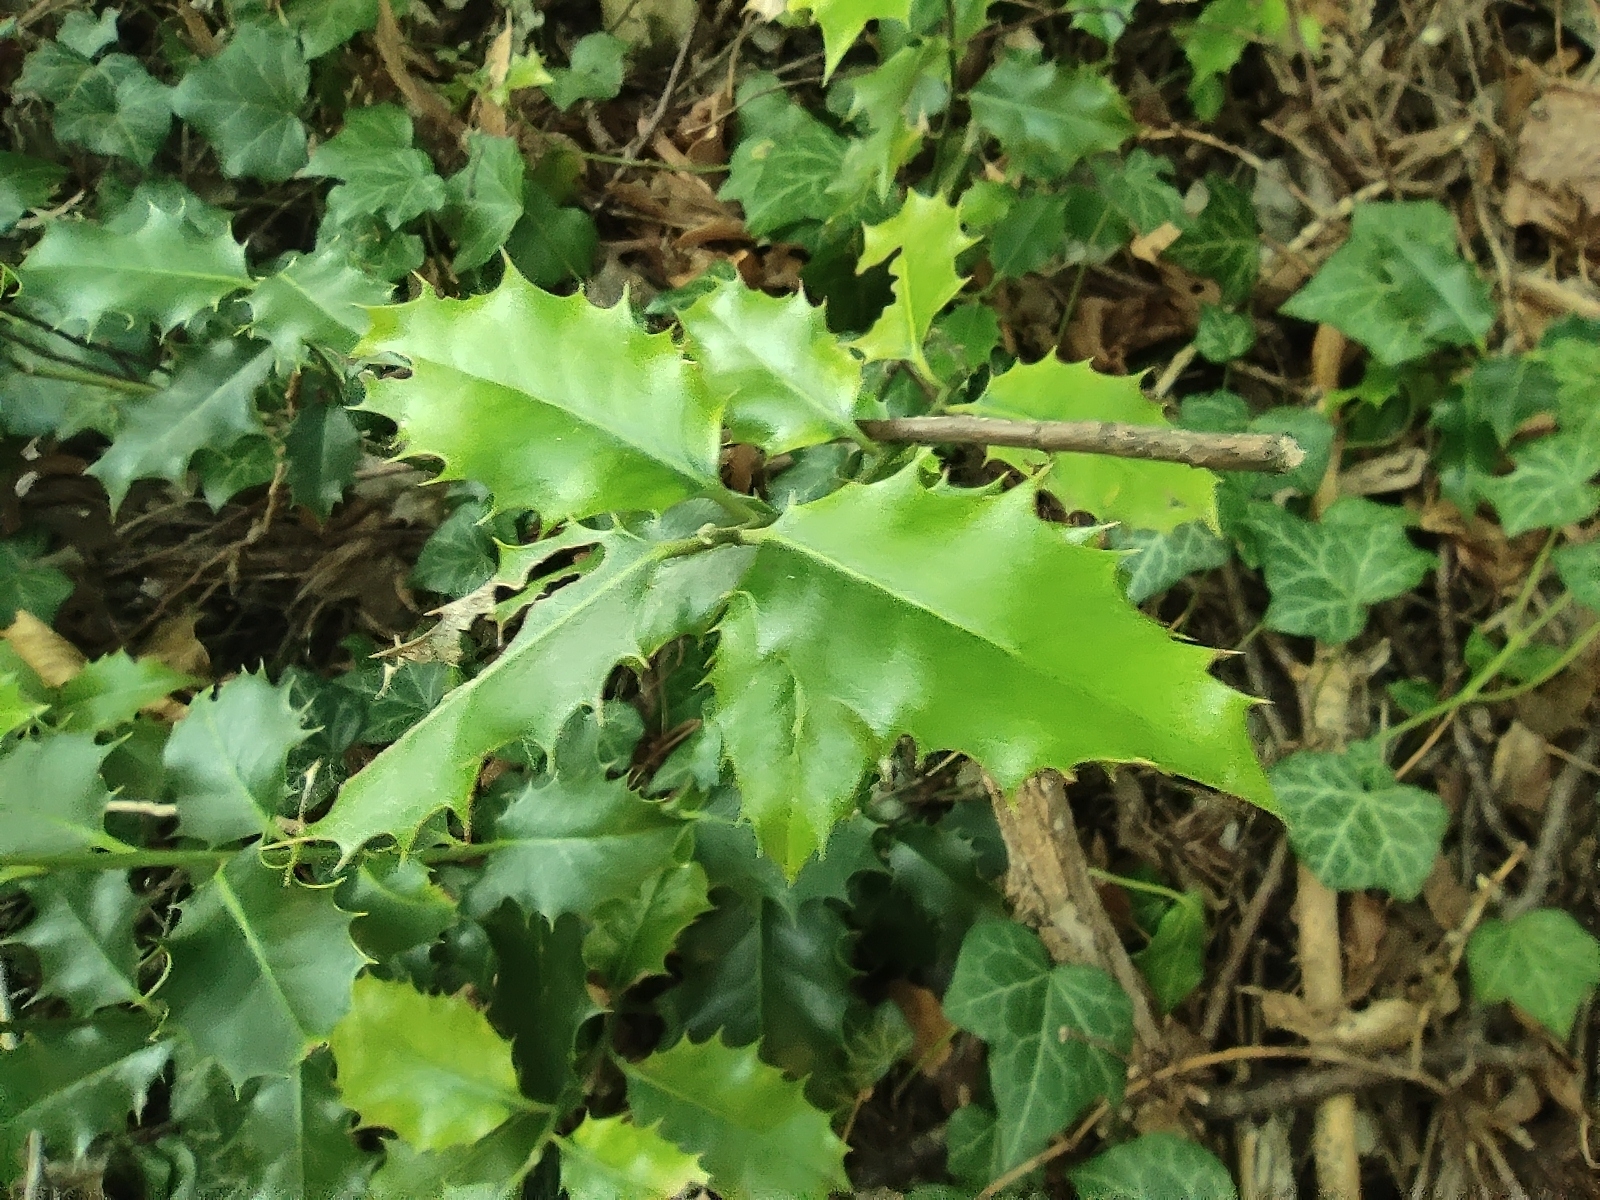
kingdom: Plantae
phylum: Tracheophyta
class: Magnoliopsida
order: Aquifoliales
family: Aquifoliaceae
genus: Ilex
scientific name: Ilex aquifolium
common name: English holly
